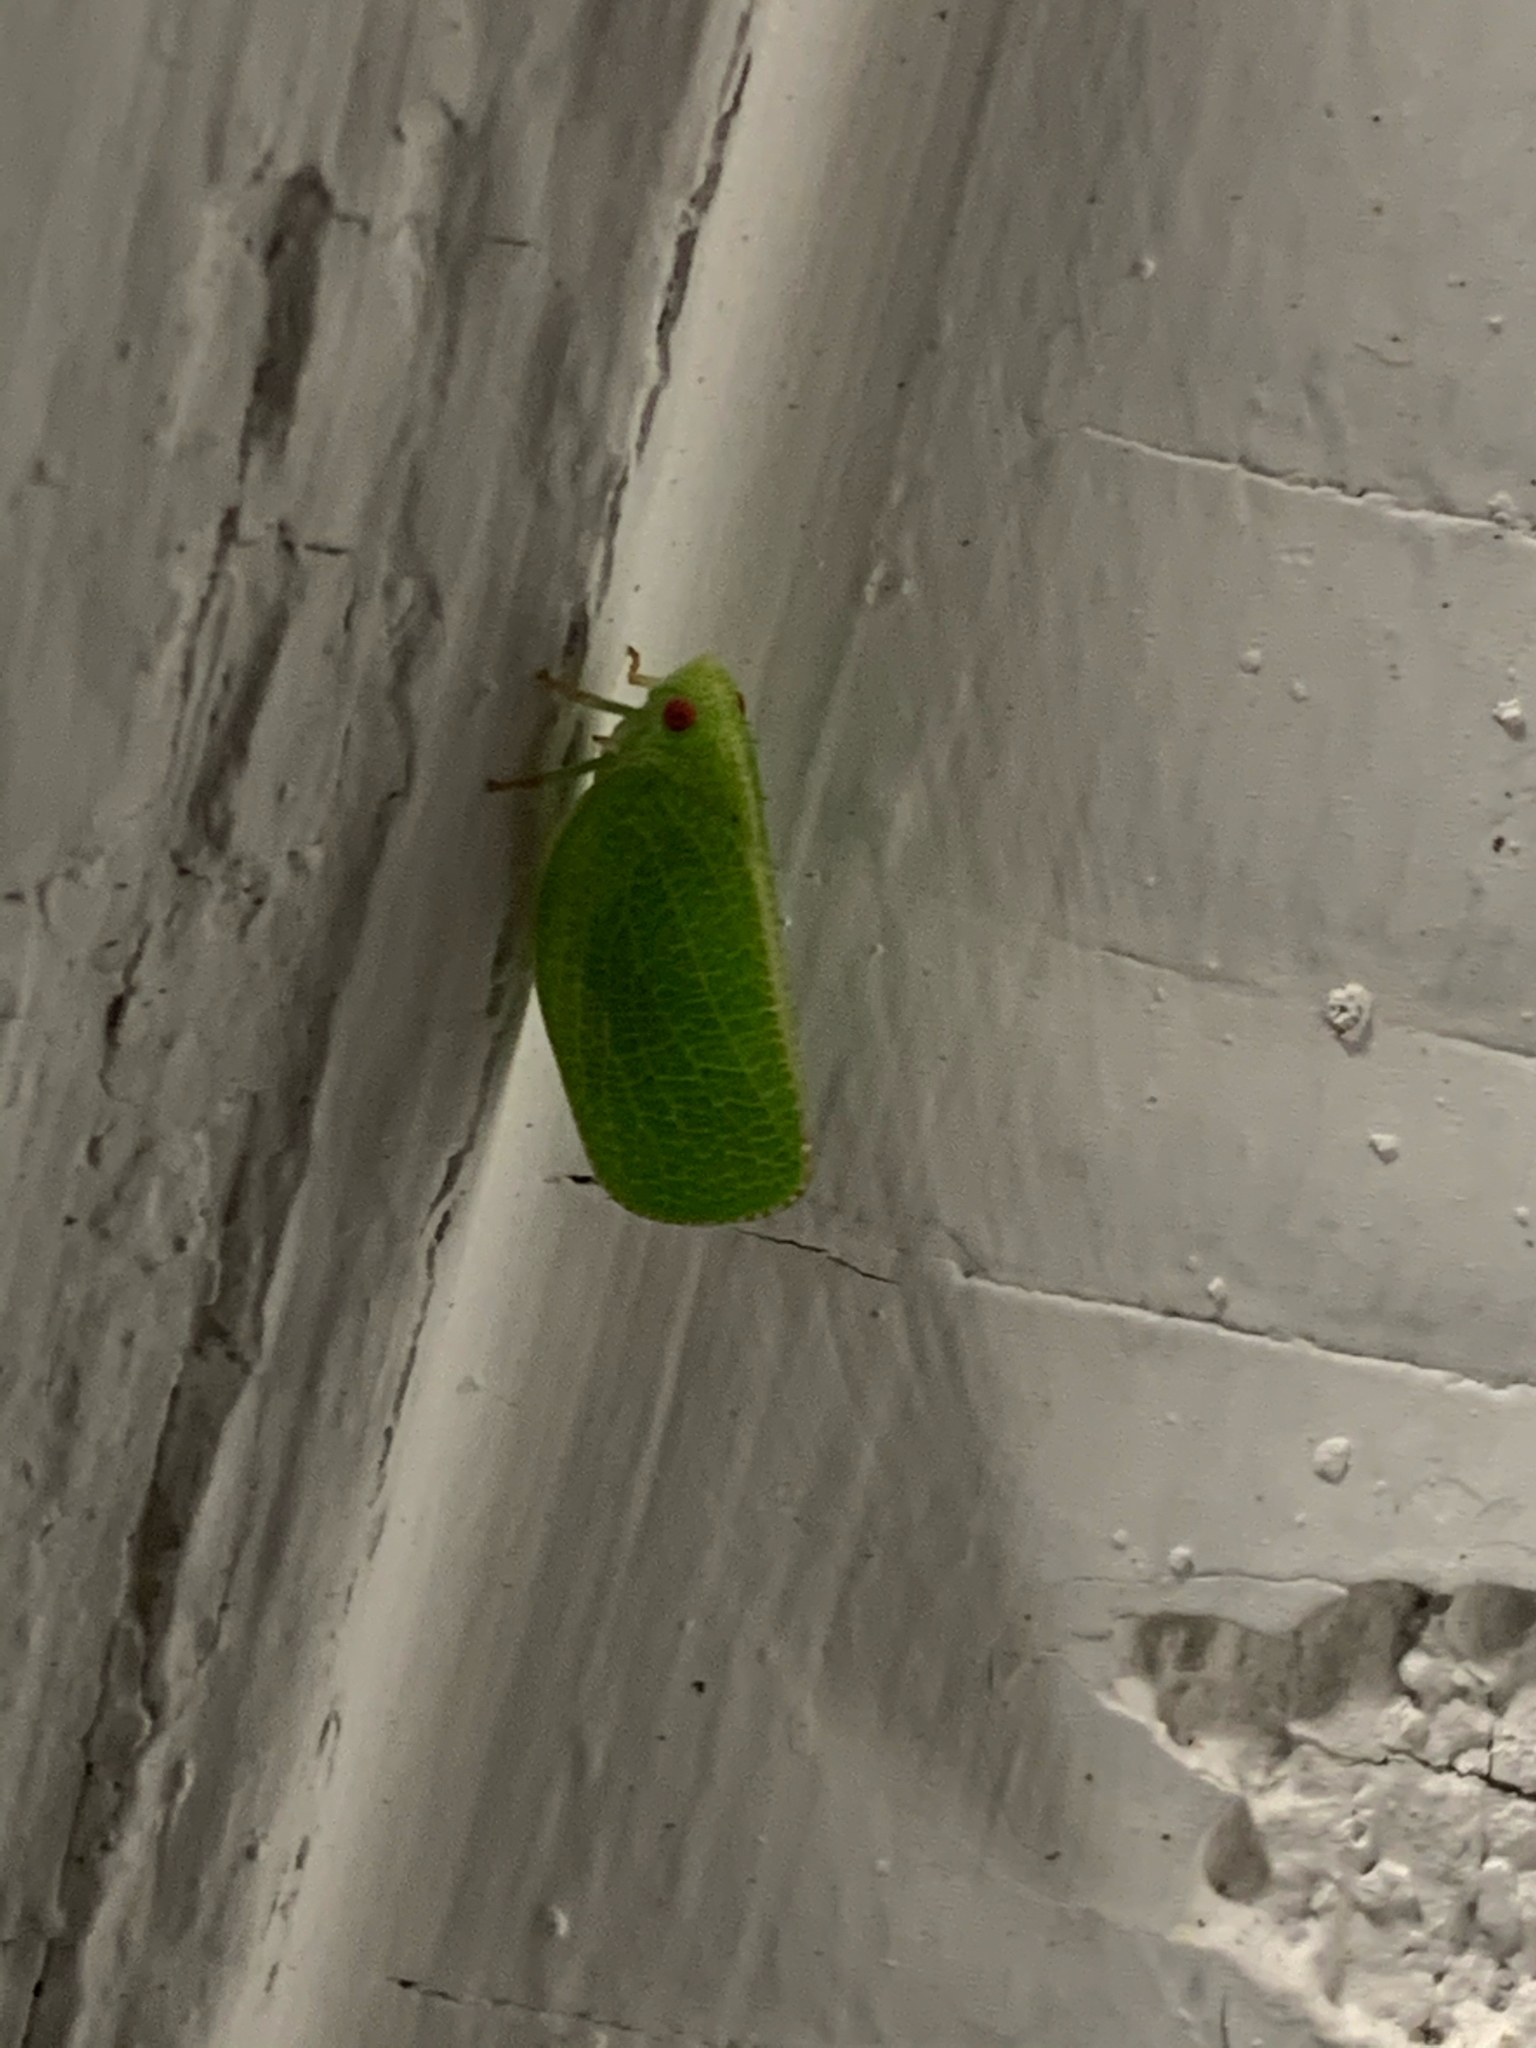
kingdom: Animalia
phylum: Arthropoda
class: Insecta
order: Hemiptera
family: Acanaloniidae
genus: Acanalonia
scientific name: Acanalonia conica
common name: Green cone-headed planthopper
